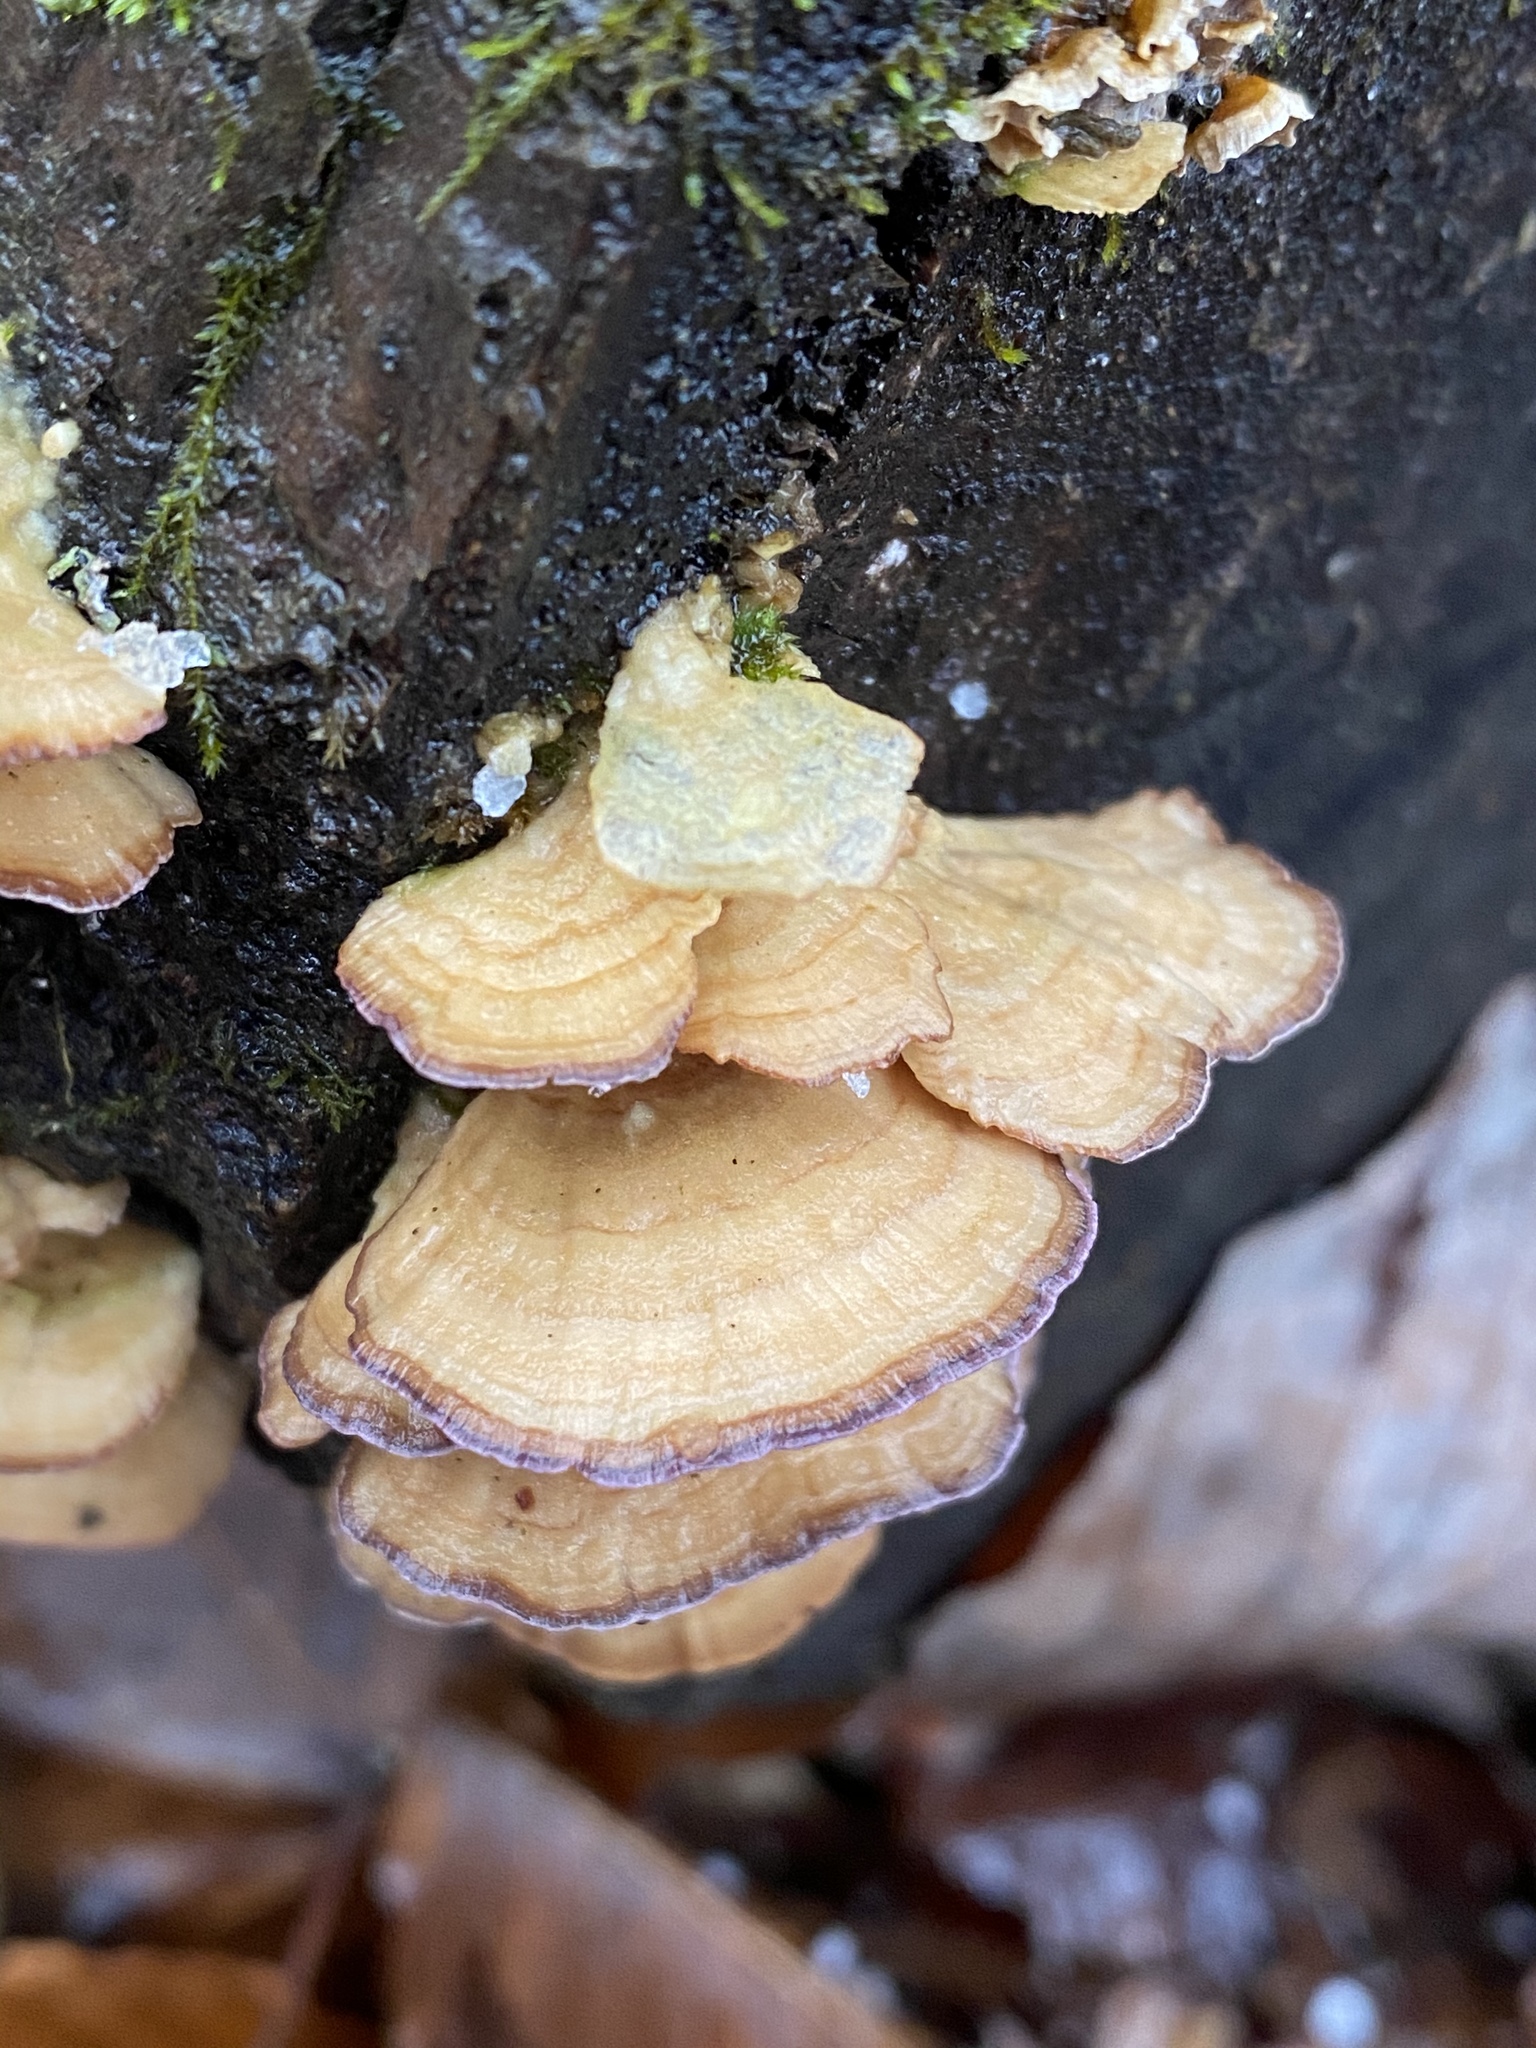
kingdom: Fungi
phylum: Basidiomycota
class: Agaricomycetes
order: Hymenochaetales
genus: Trichaptum
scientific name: Trichaptum biforme
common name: Violet-toothed polypore
